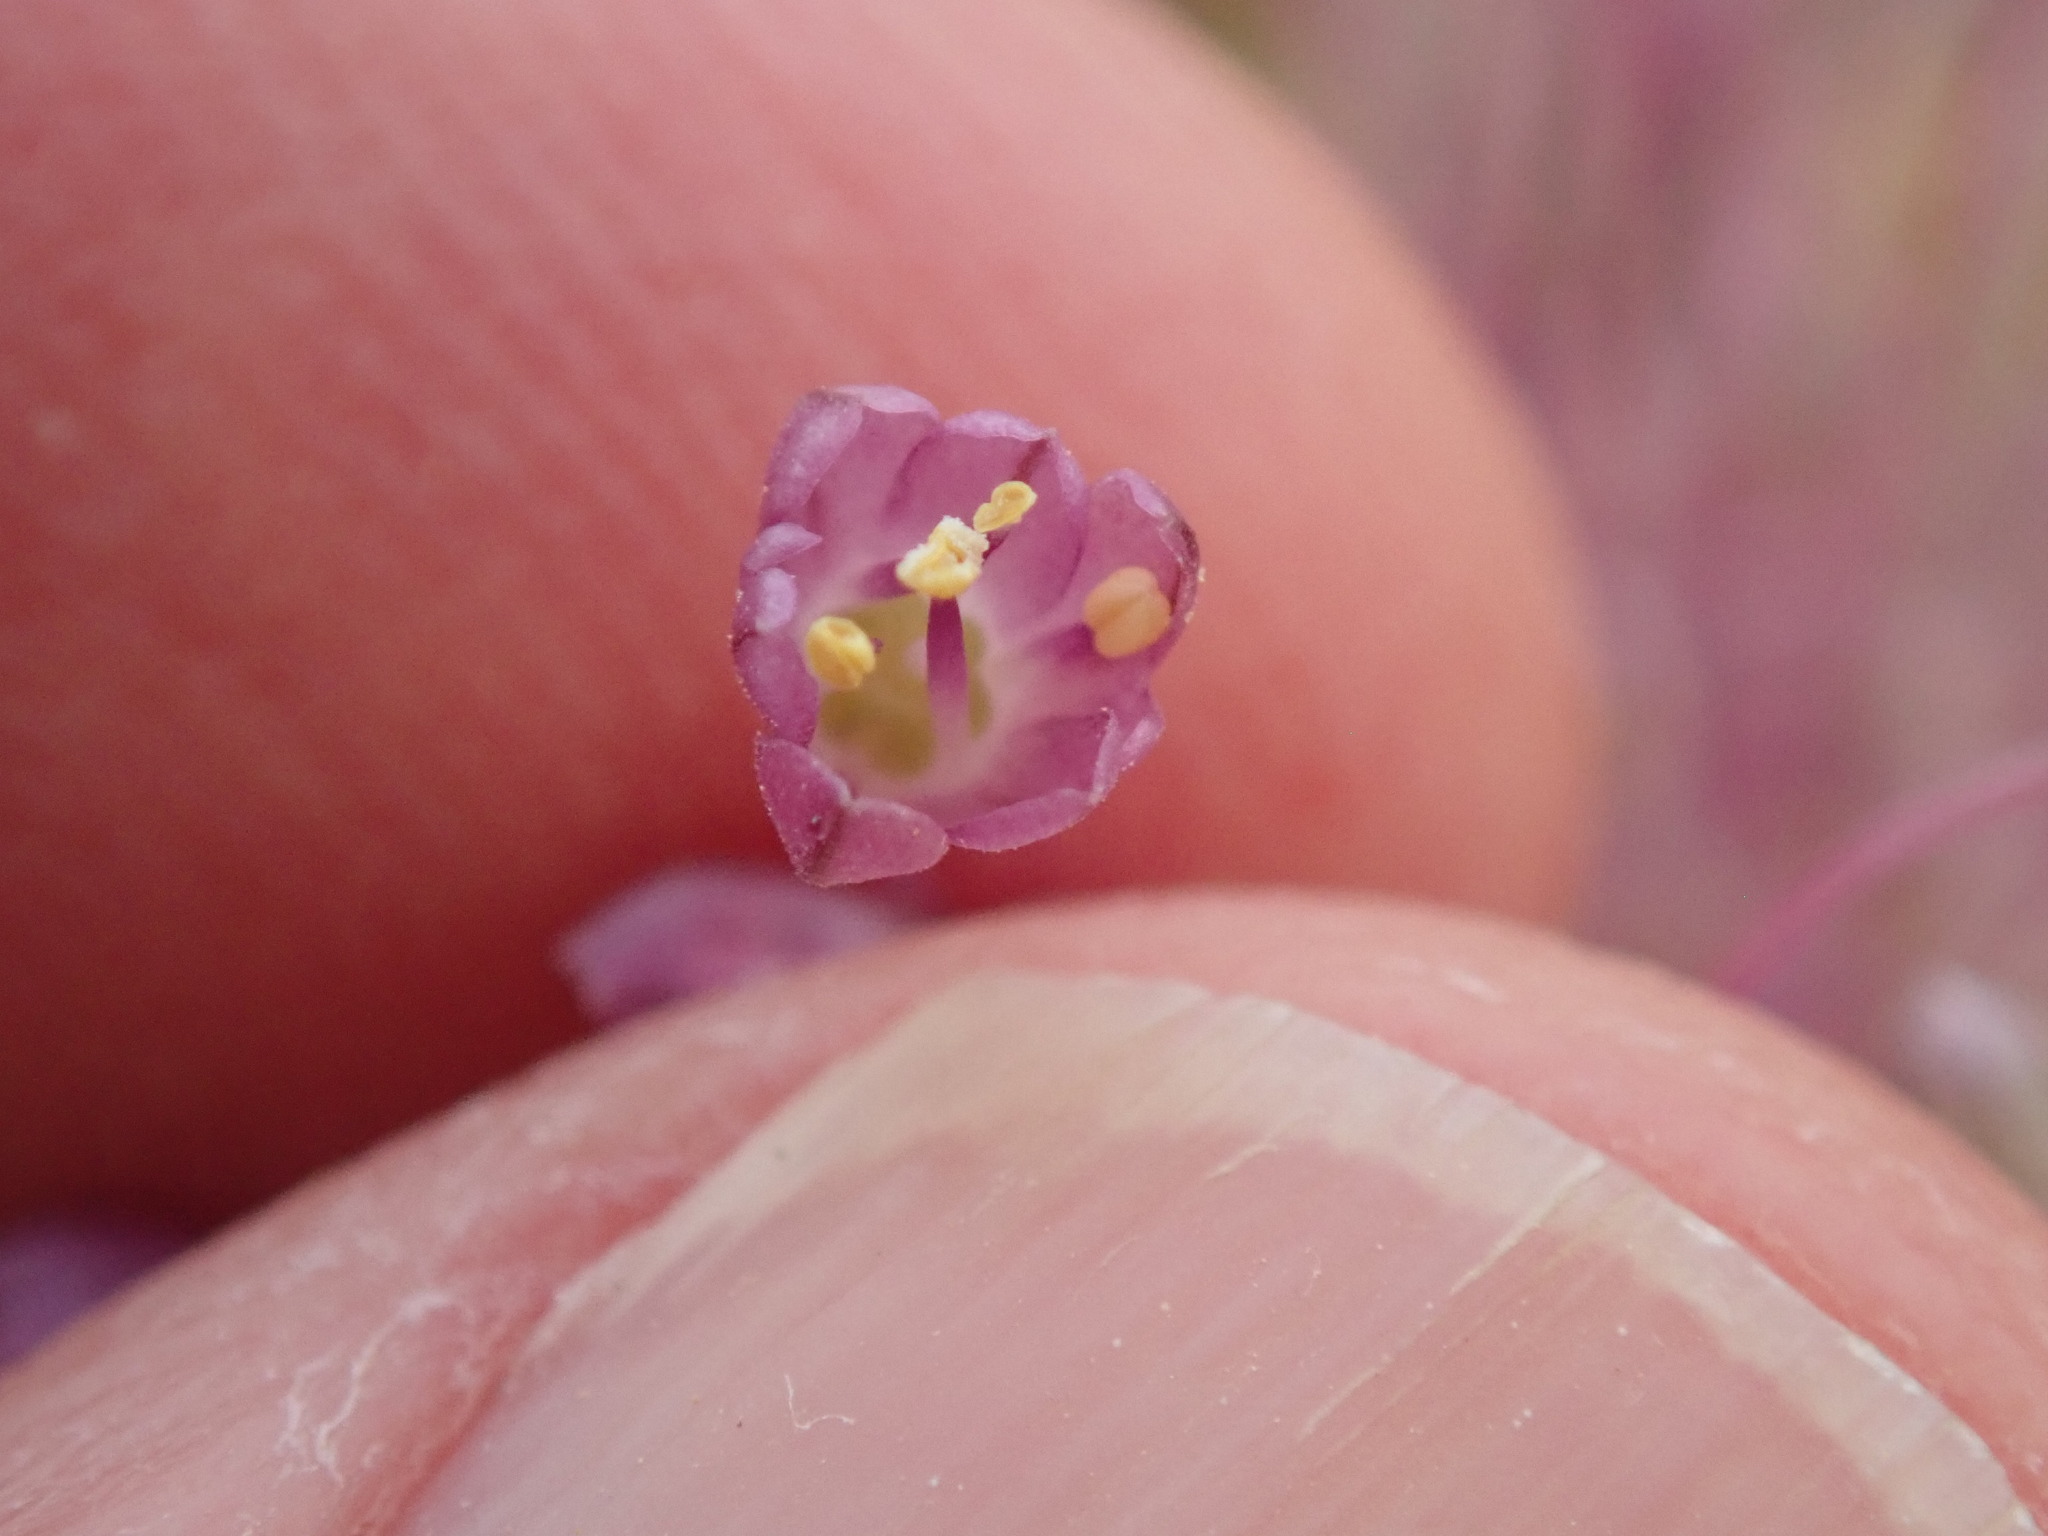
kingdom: Plantae
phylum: Tracheophyta
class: Liliopsida
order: Asparagales
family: Amaryllidaceae
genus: Allium
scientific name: Allium daninianum
